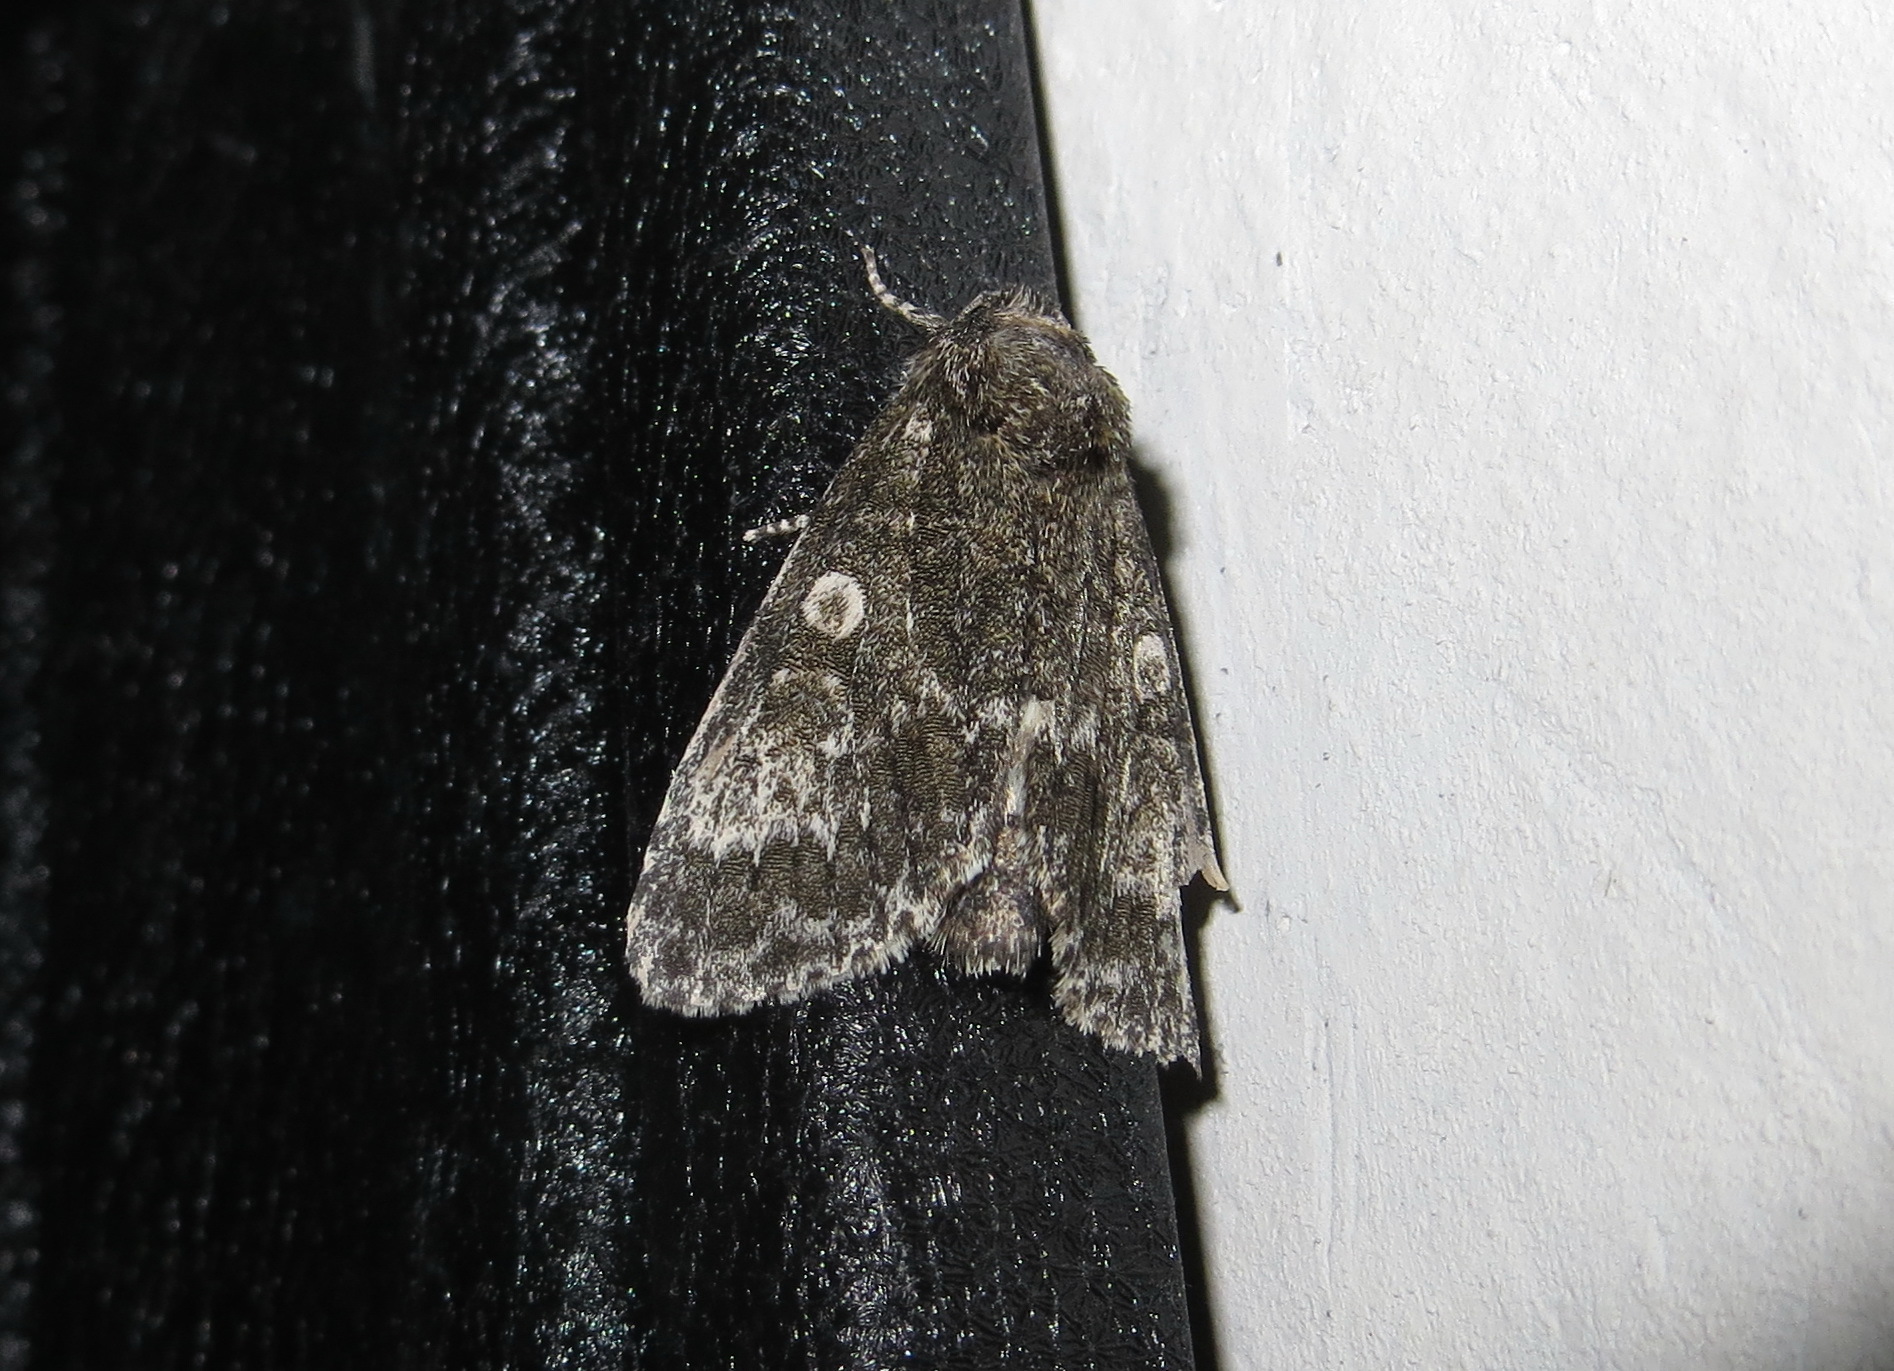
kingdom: Animalia
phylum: Arthropoda
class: Insecta
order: Lepidoptera
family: Noctuidae
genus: Acronicta
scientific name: Acronicta megacephala
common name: Poplar grey
